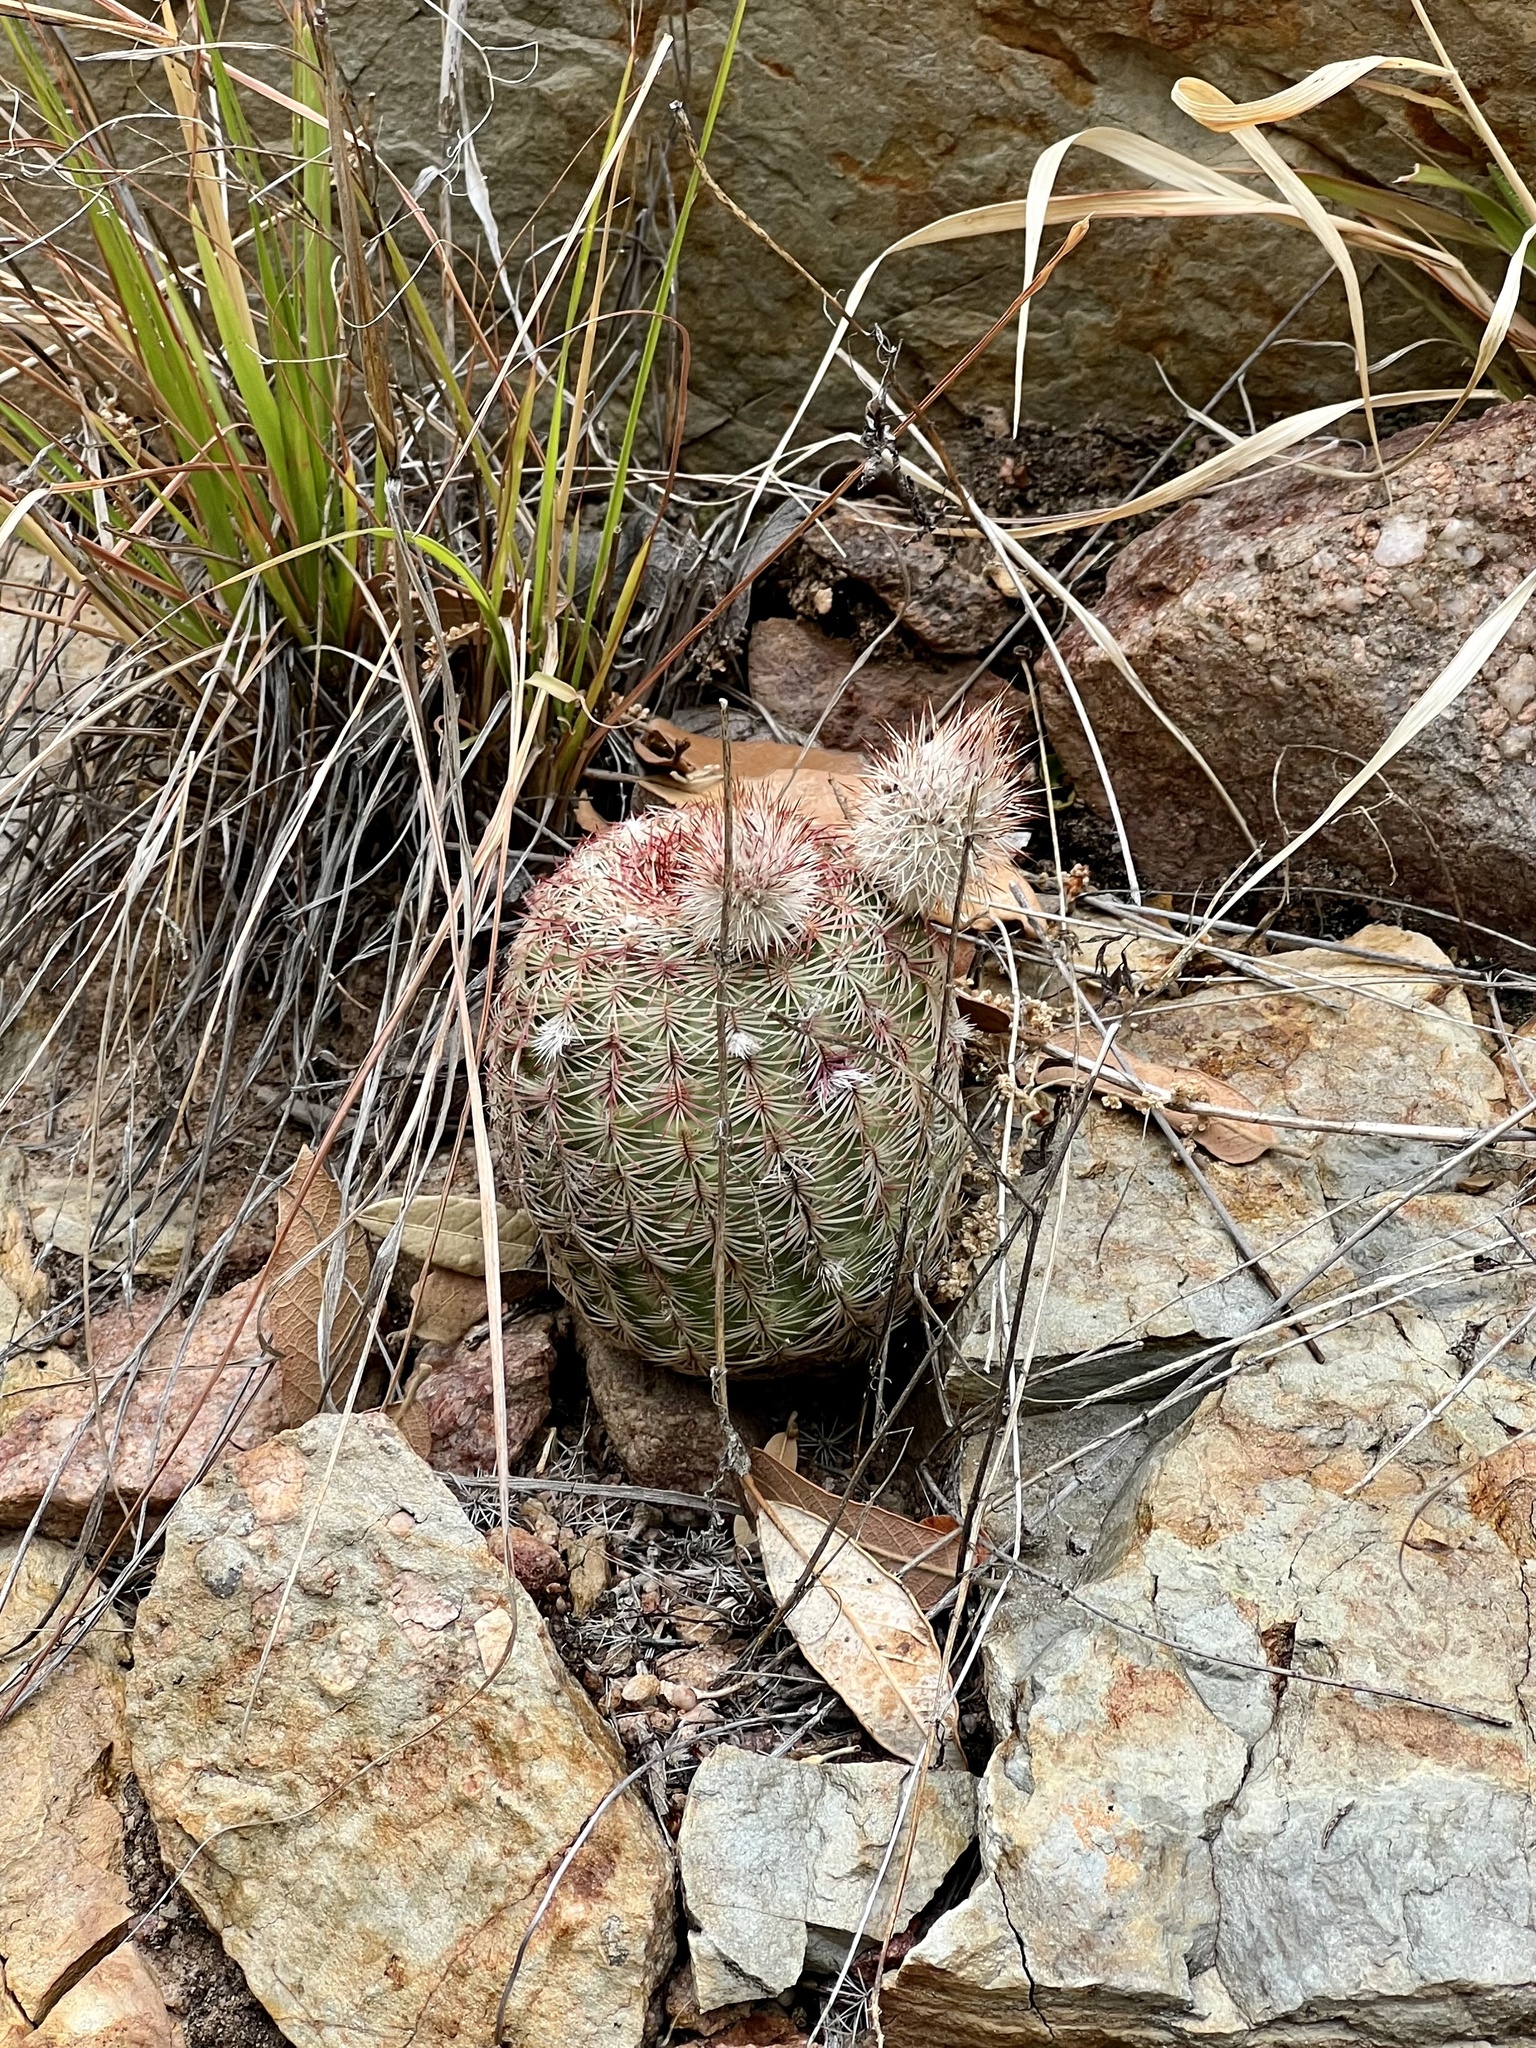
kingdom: Plantae
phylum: Tracheophyta
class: Magnoliopsida
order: Caryophyllales
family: Cactaceae
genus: Echinocereus
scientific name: Echinocereus rigidissimus
